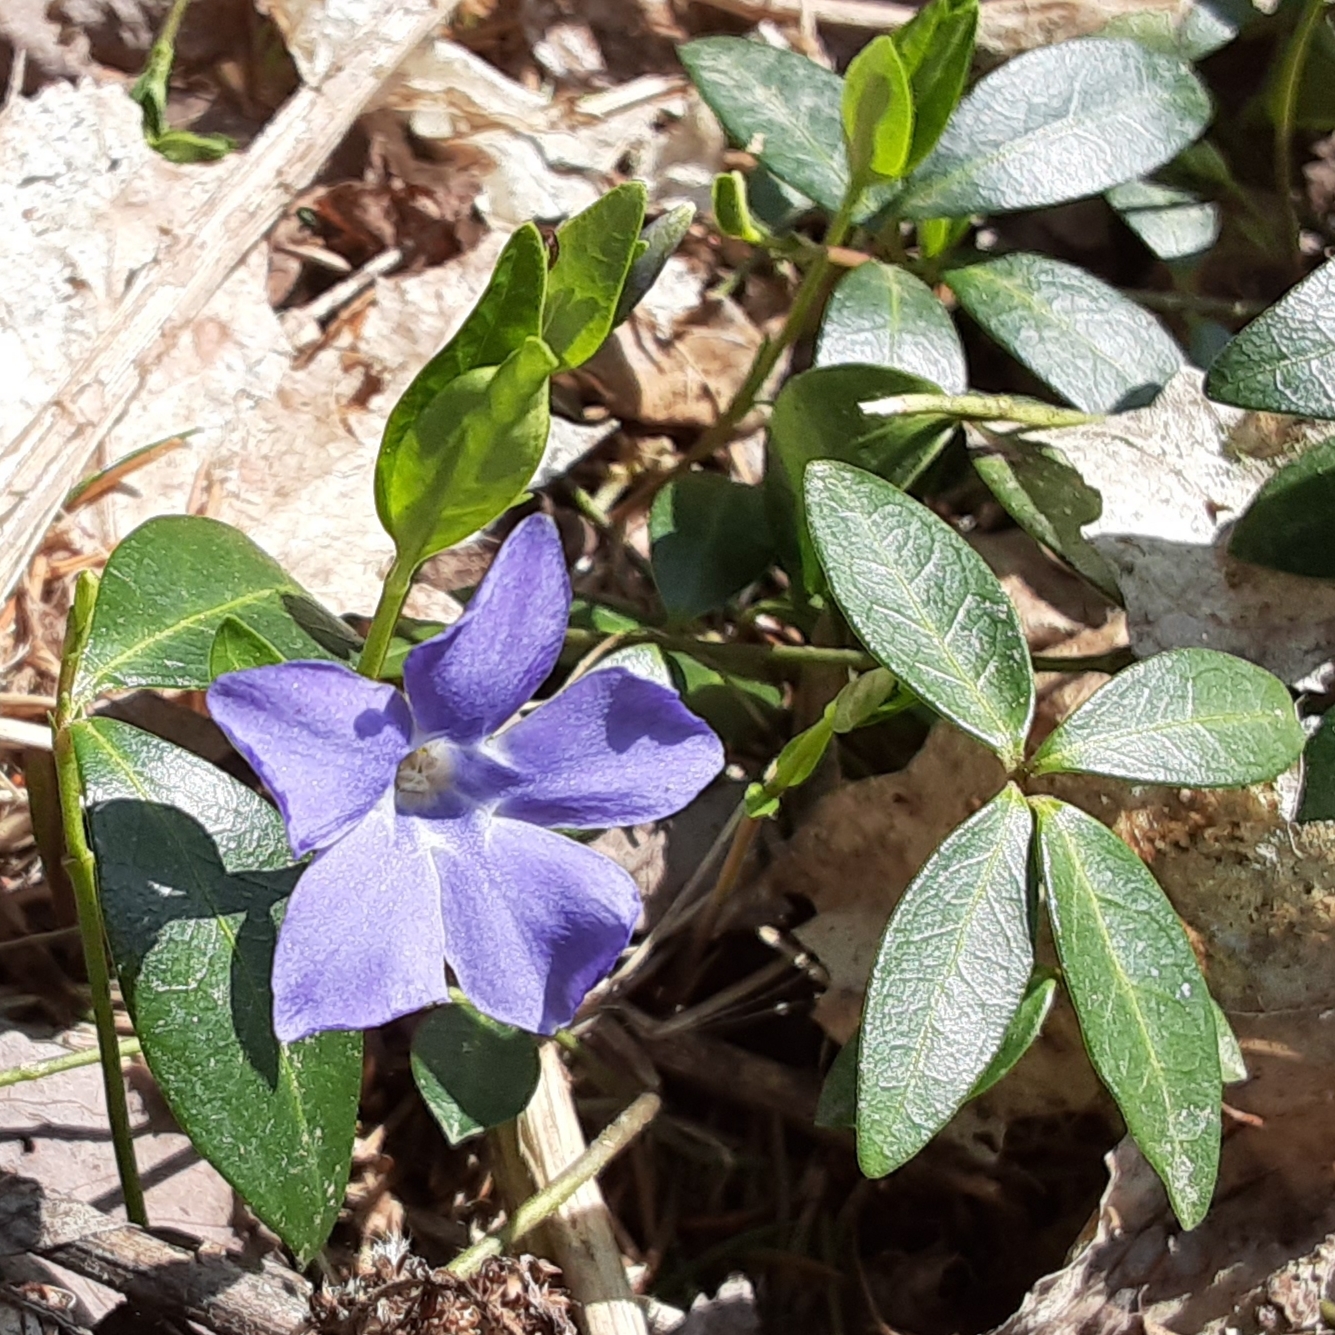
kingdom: Plantae
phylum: Tracheophyta
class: Magnoliopsida
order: Gentianales
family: Apocynaceae
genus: Vinca
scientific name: Vinca minor
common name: Lesser periwinkle
